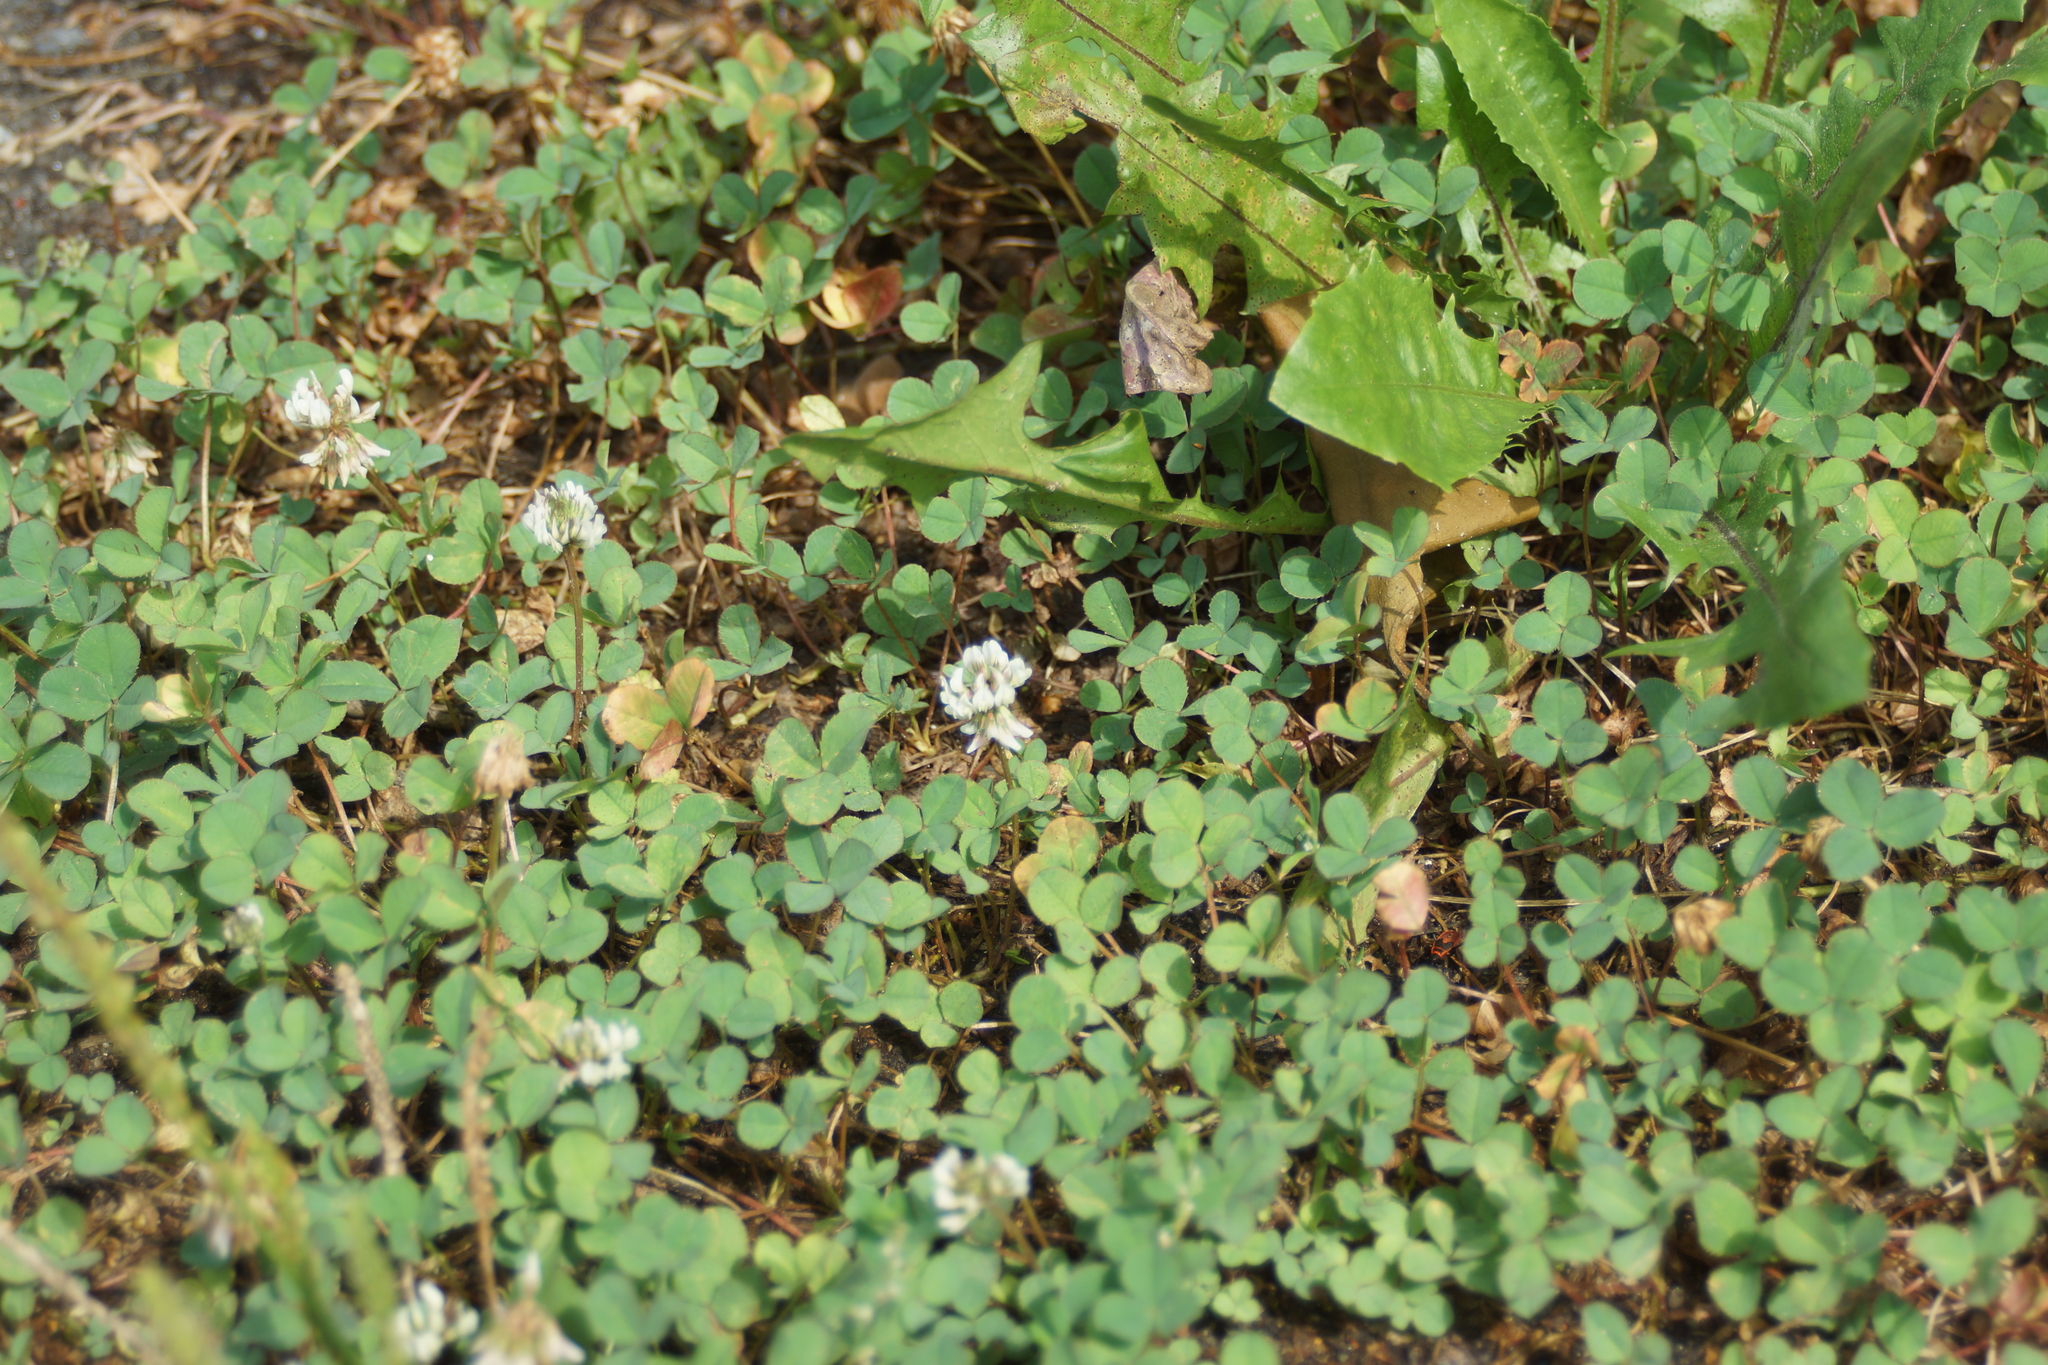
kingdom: Plantae
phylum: Tracheophyta
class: Magnoliopsida
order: Fabales
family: Fabaceae
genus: Trifolium
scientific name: Trifolium repens
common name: White clover
